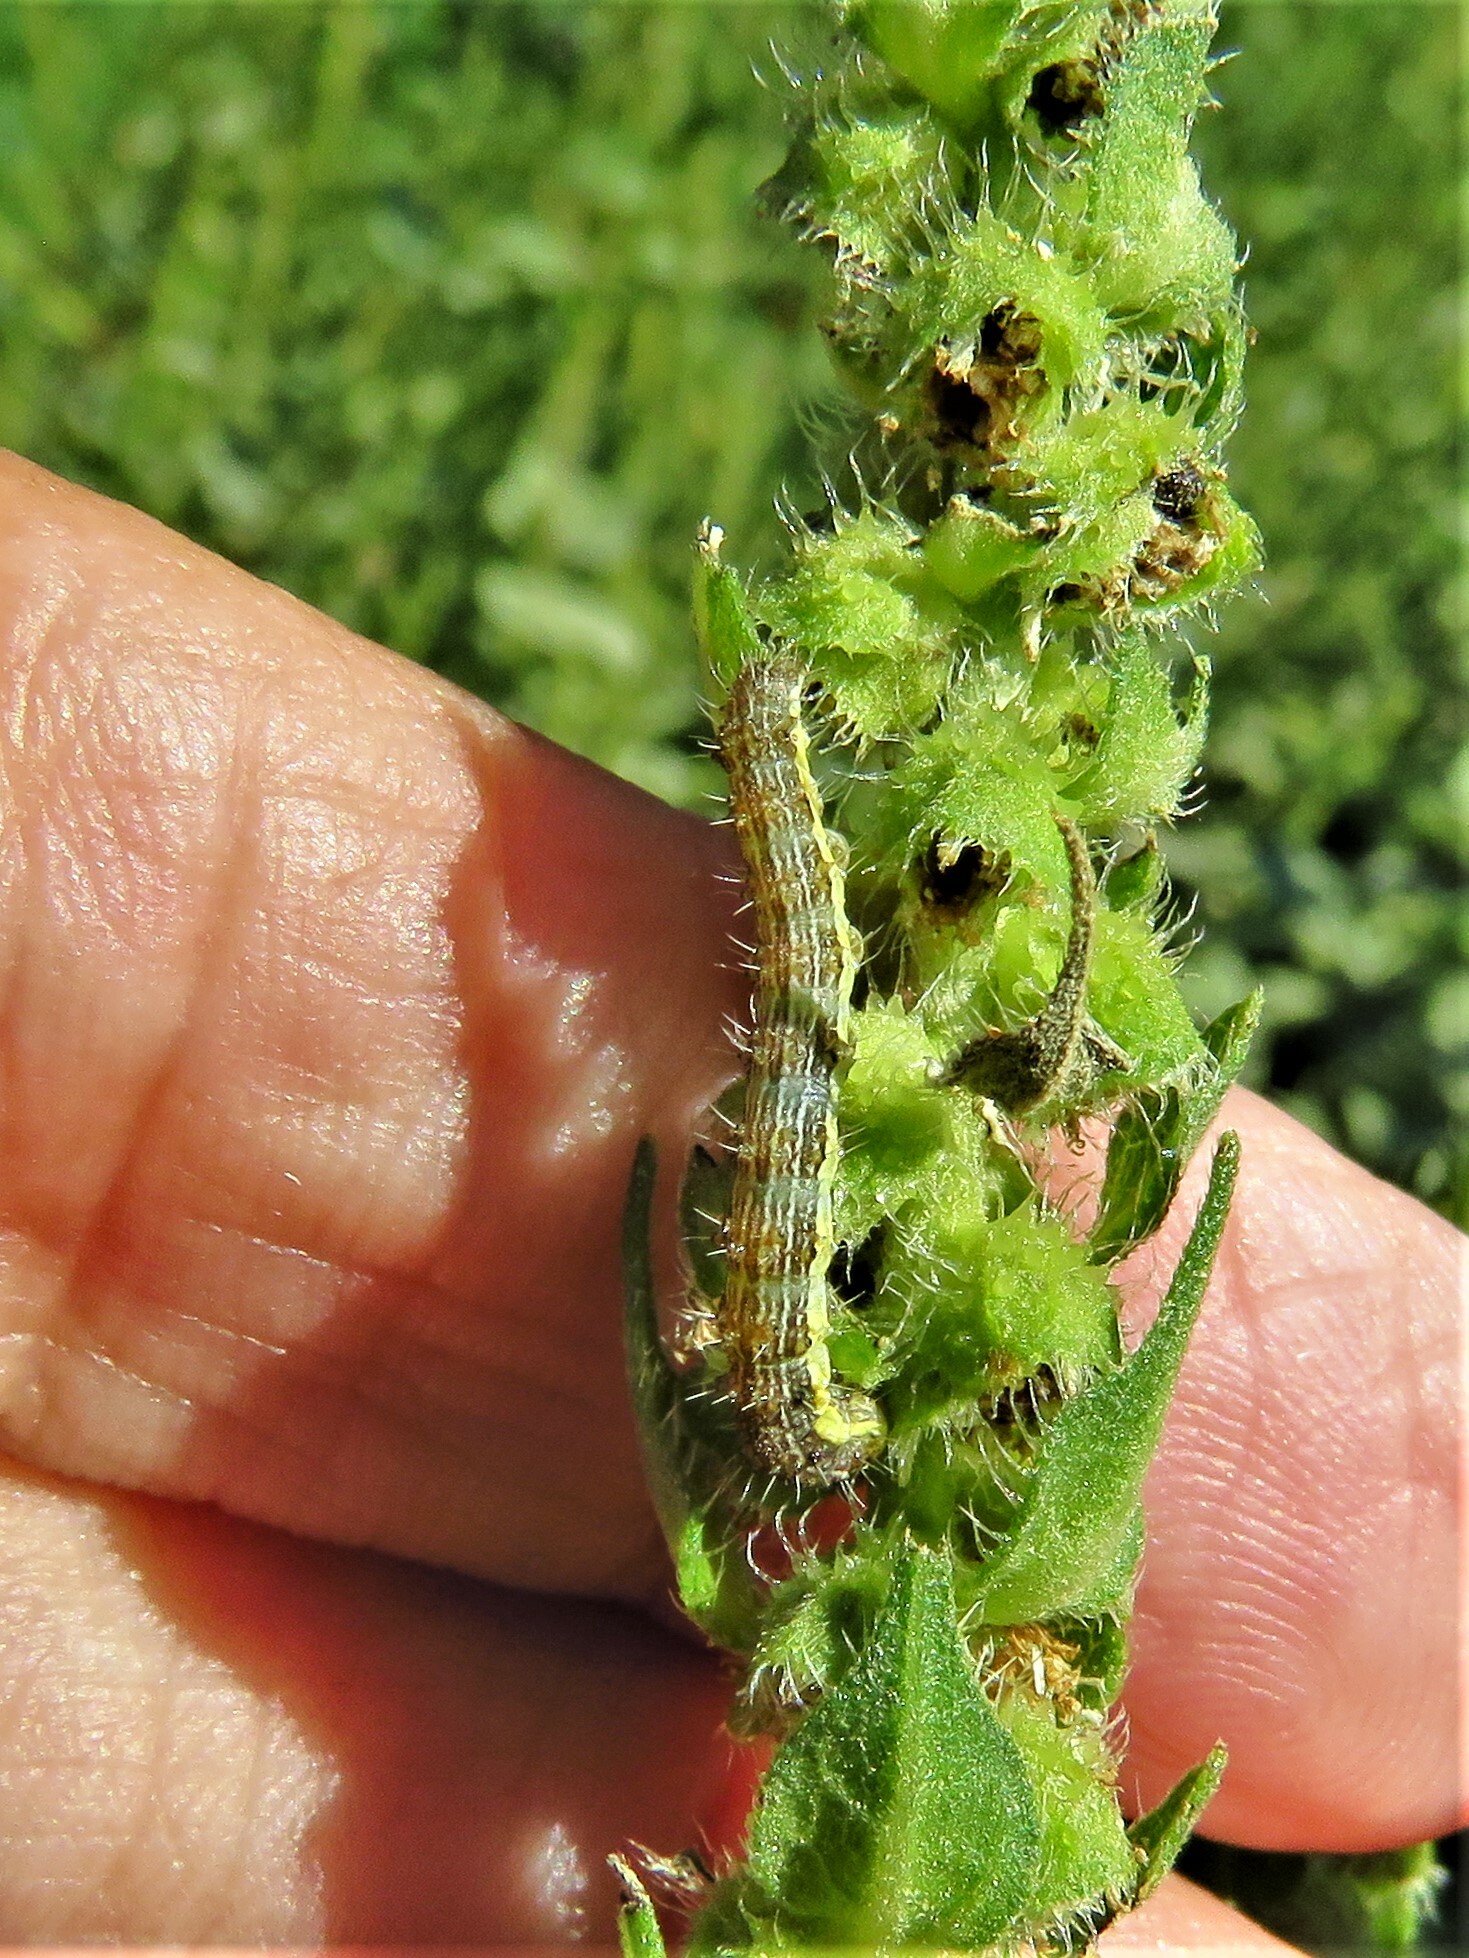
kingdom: Animalia
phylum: Arthropoda
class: Insecta
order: Lepidoptera
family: Noctuidae
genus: Schinia
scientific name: Schinia gracilenta
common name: Slender flower moth
